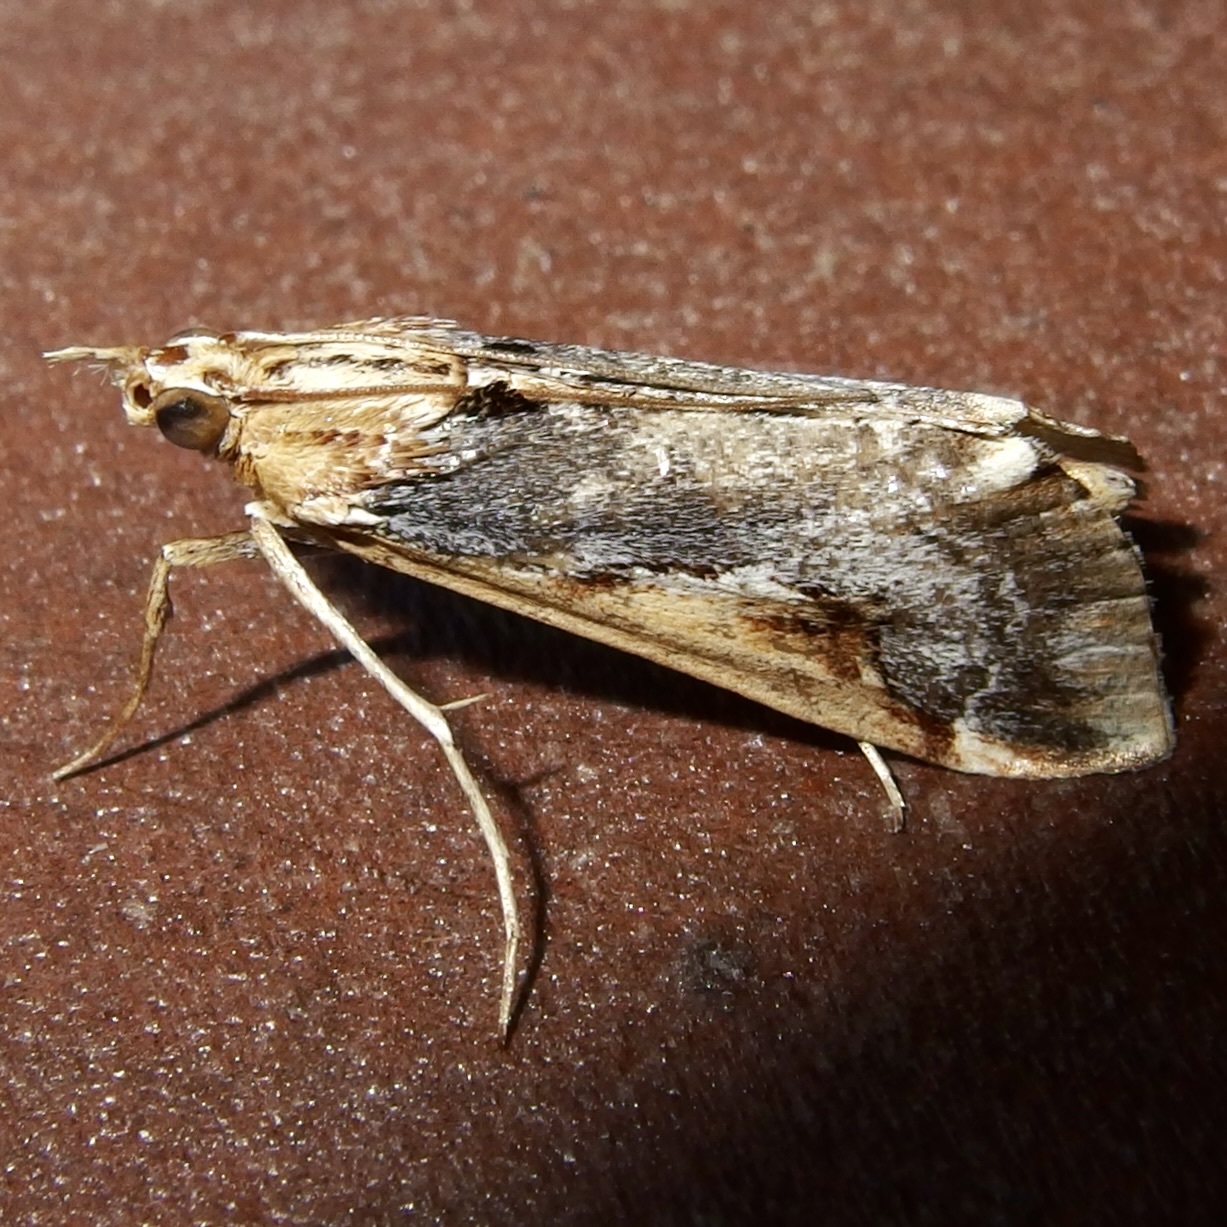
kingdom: Animalia
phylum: Arthropoda
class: Insecta
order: Lepidoptera
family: Crambidae
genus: Loxostege
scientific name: Loxostege albiceralis
